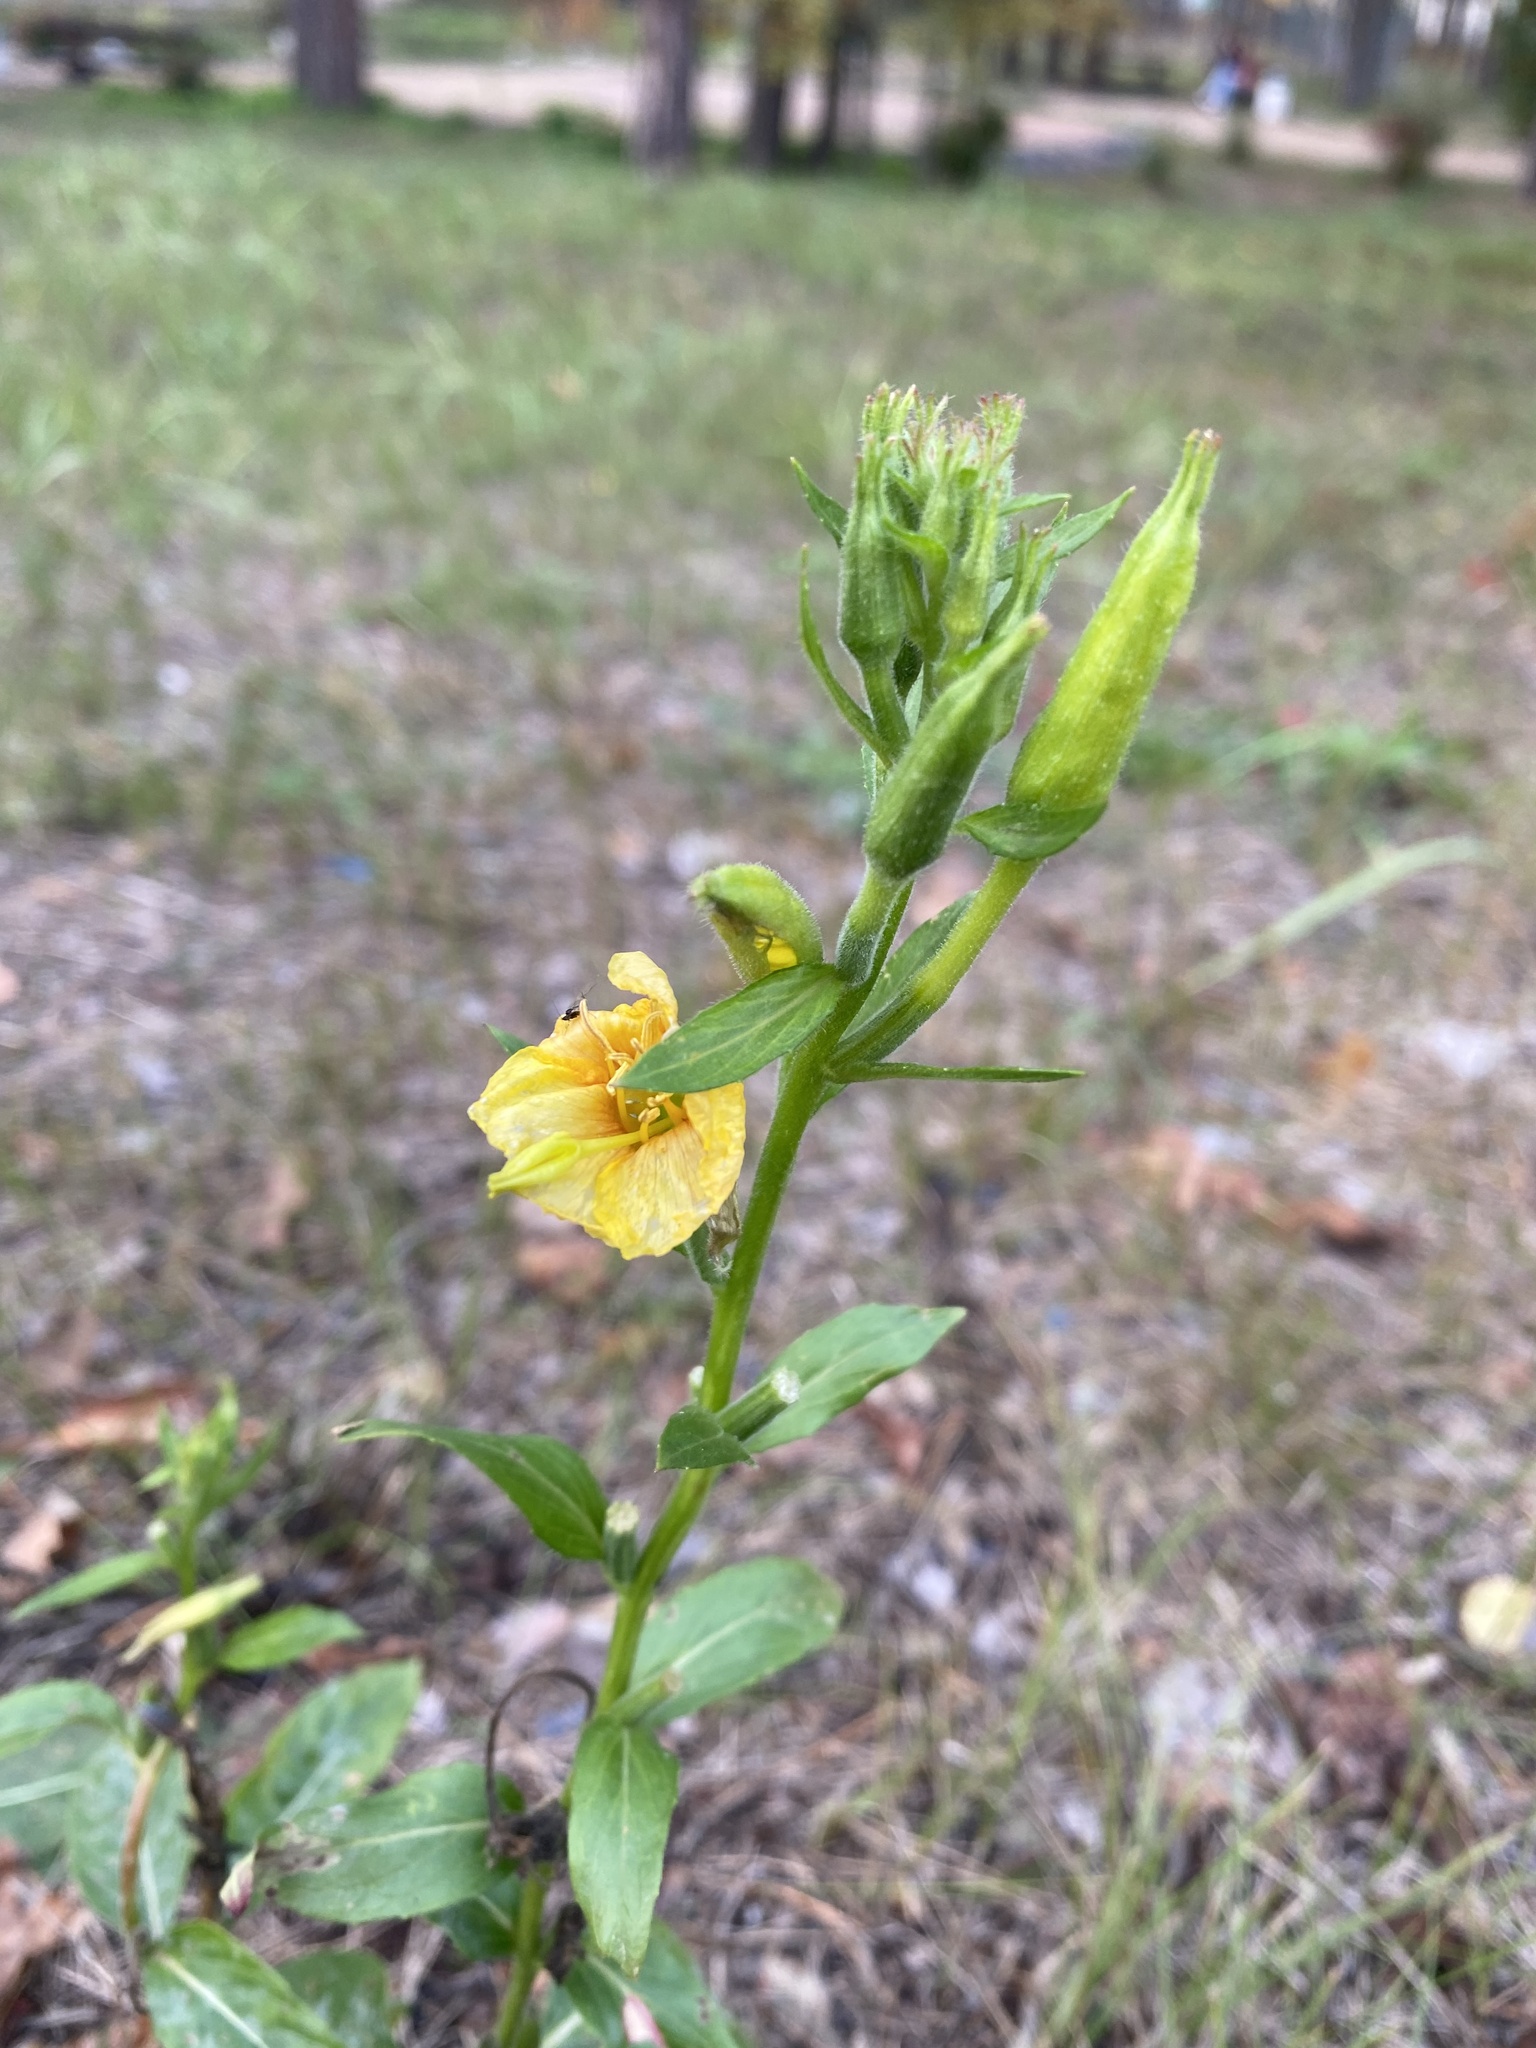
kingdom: Plantae
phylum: Tracheophyta
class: Magnoliopsida
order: Myrtales
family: Onagraceae
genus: Oenothera
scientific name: Oenothera biennis
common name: Common evening-primrose
